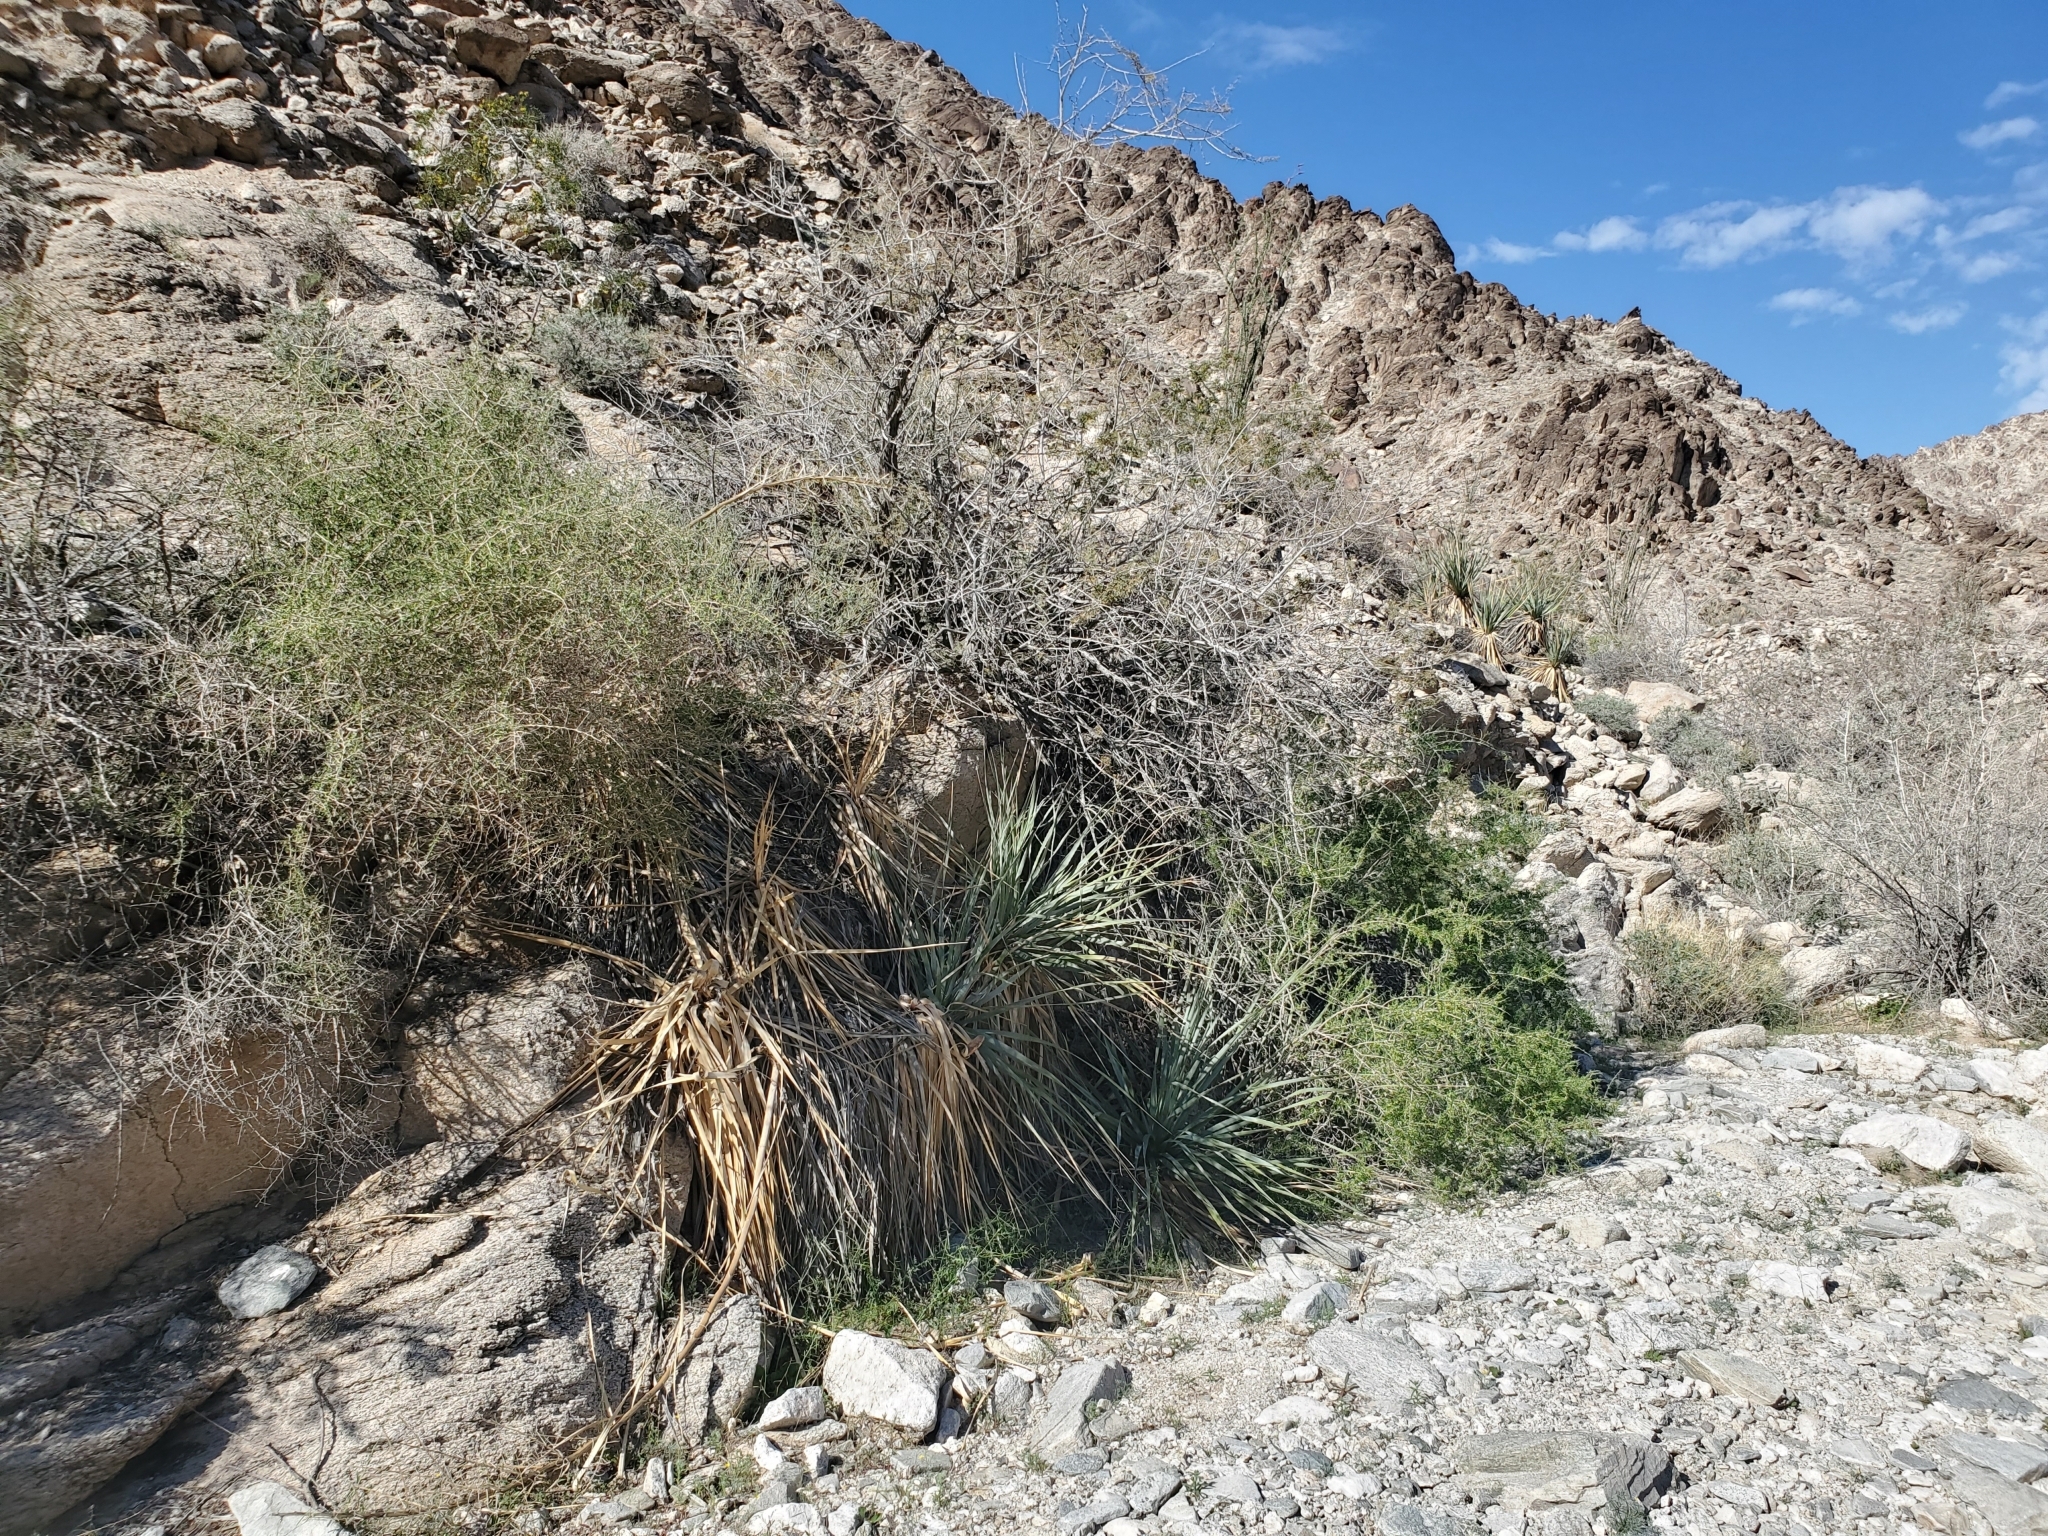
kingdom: Plantae
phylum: Tracheophyta
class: Liliopsida
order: Asparagales
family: Asparagaceae
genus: Nolina
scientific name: Nolina bigelovii
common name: Bigelow bear-grass
